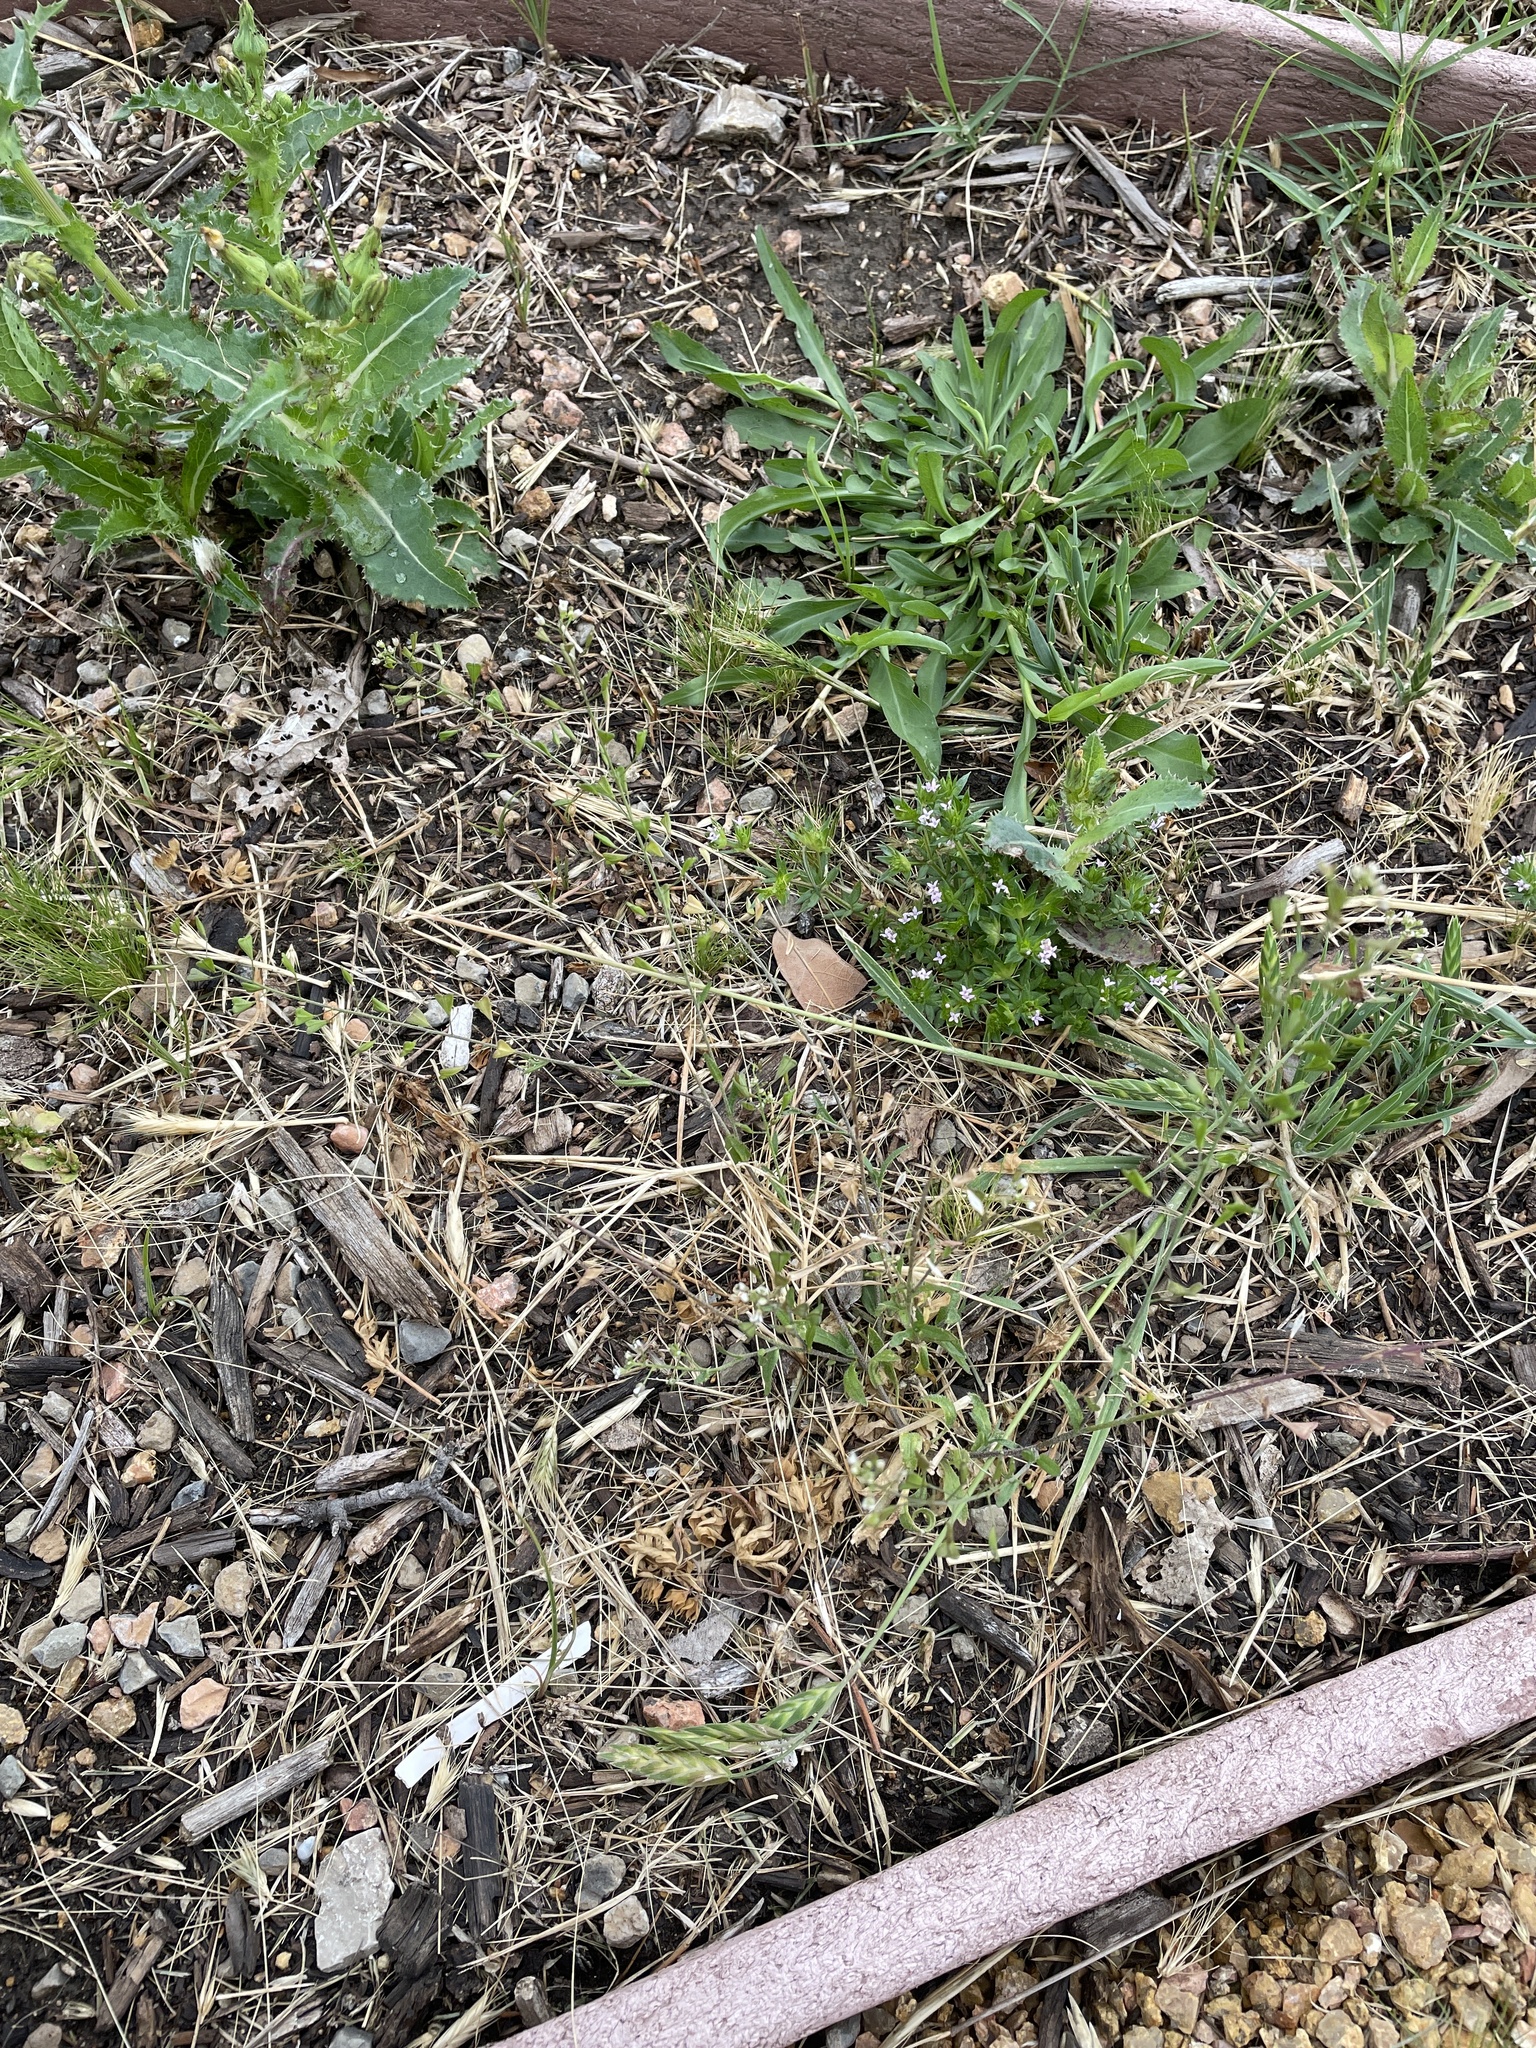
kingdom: Plantae
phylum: Tracheophyta
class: Magnoliopsida
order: Brassicales
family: Brassicaceae
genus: Capsella
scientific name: Capsella bursa-pastoris
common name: Shepherd's purse
